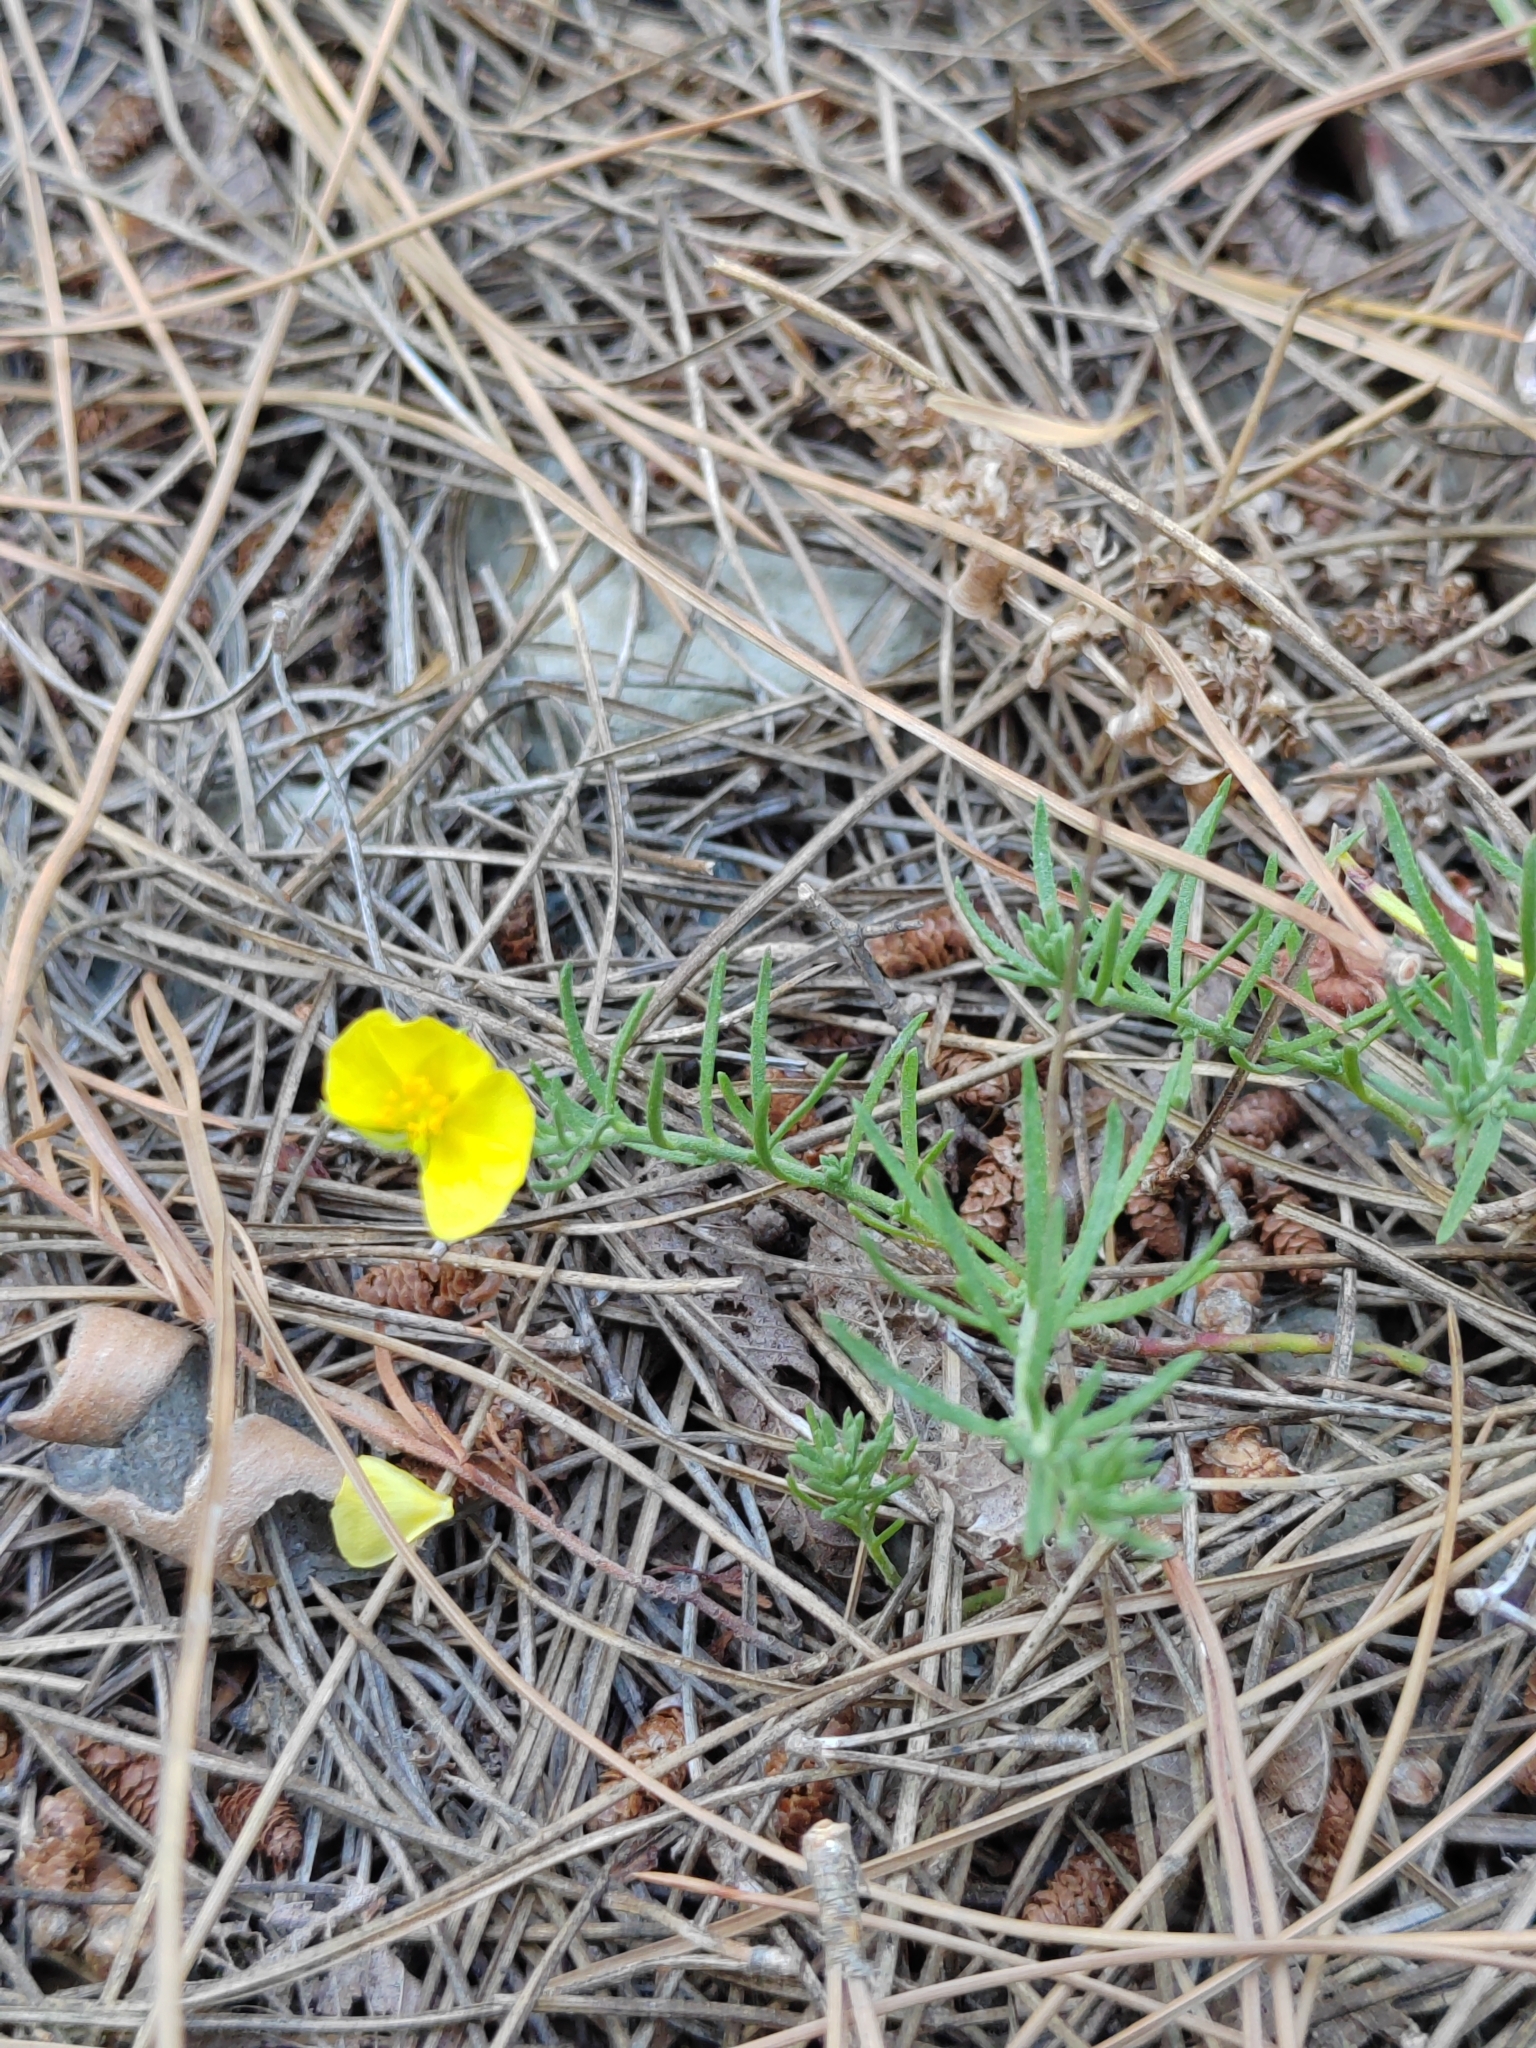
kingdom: Plantae
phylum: Tracheophyta
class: Magnoliopsida
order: Malvales
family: Cistaceae
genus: Fumana
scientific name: Fumana procumbens
